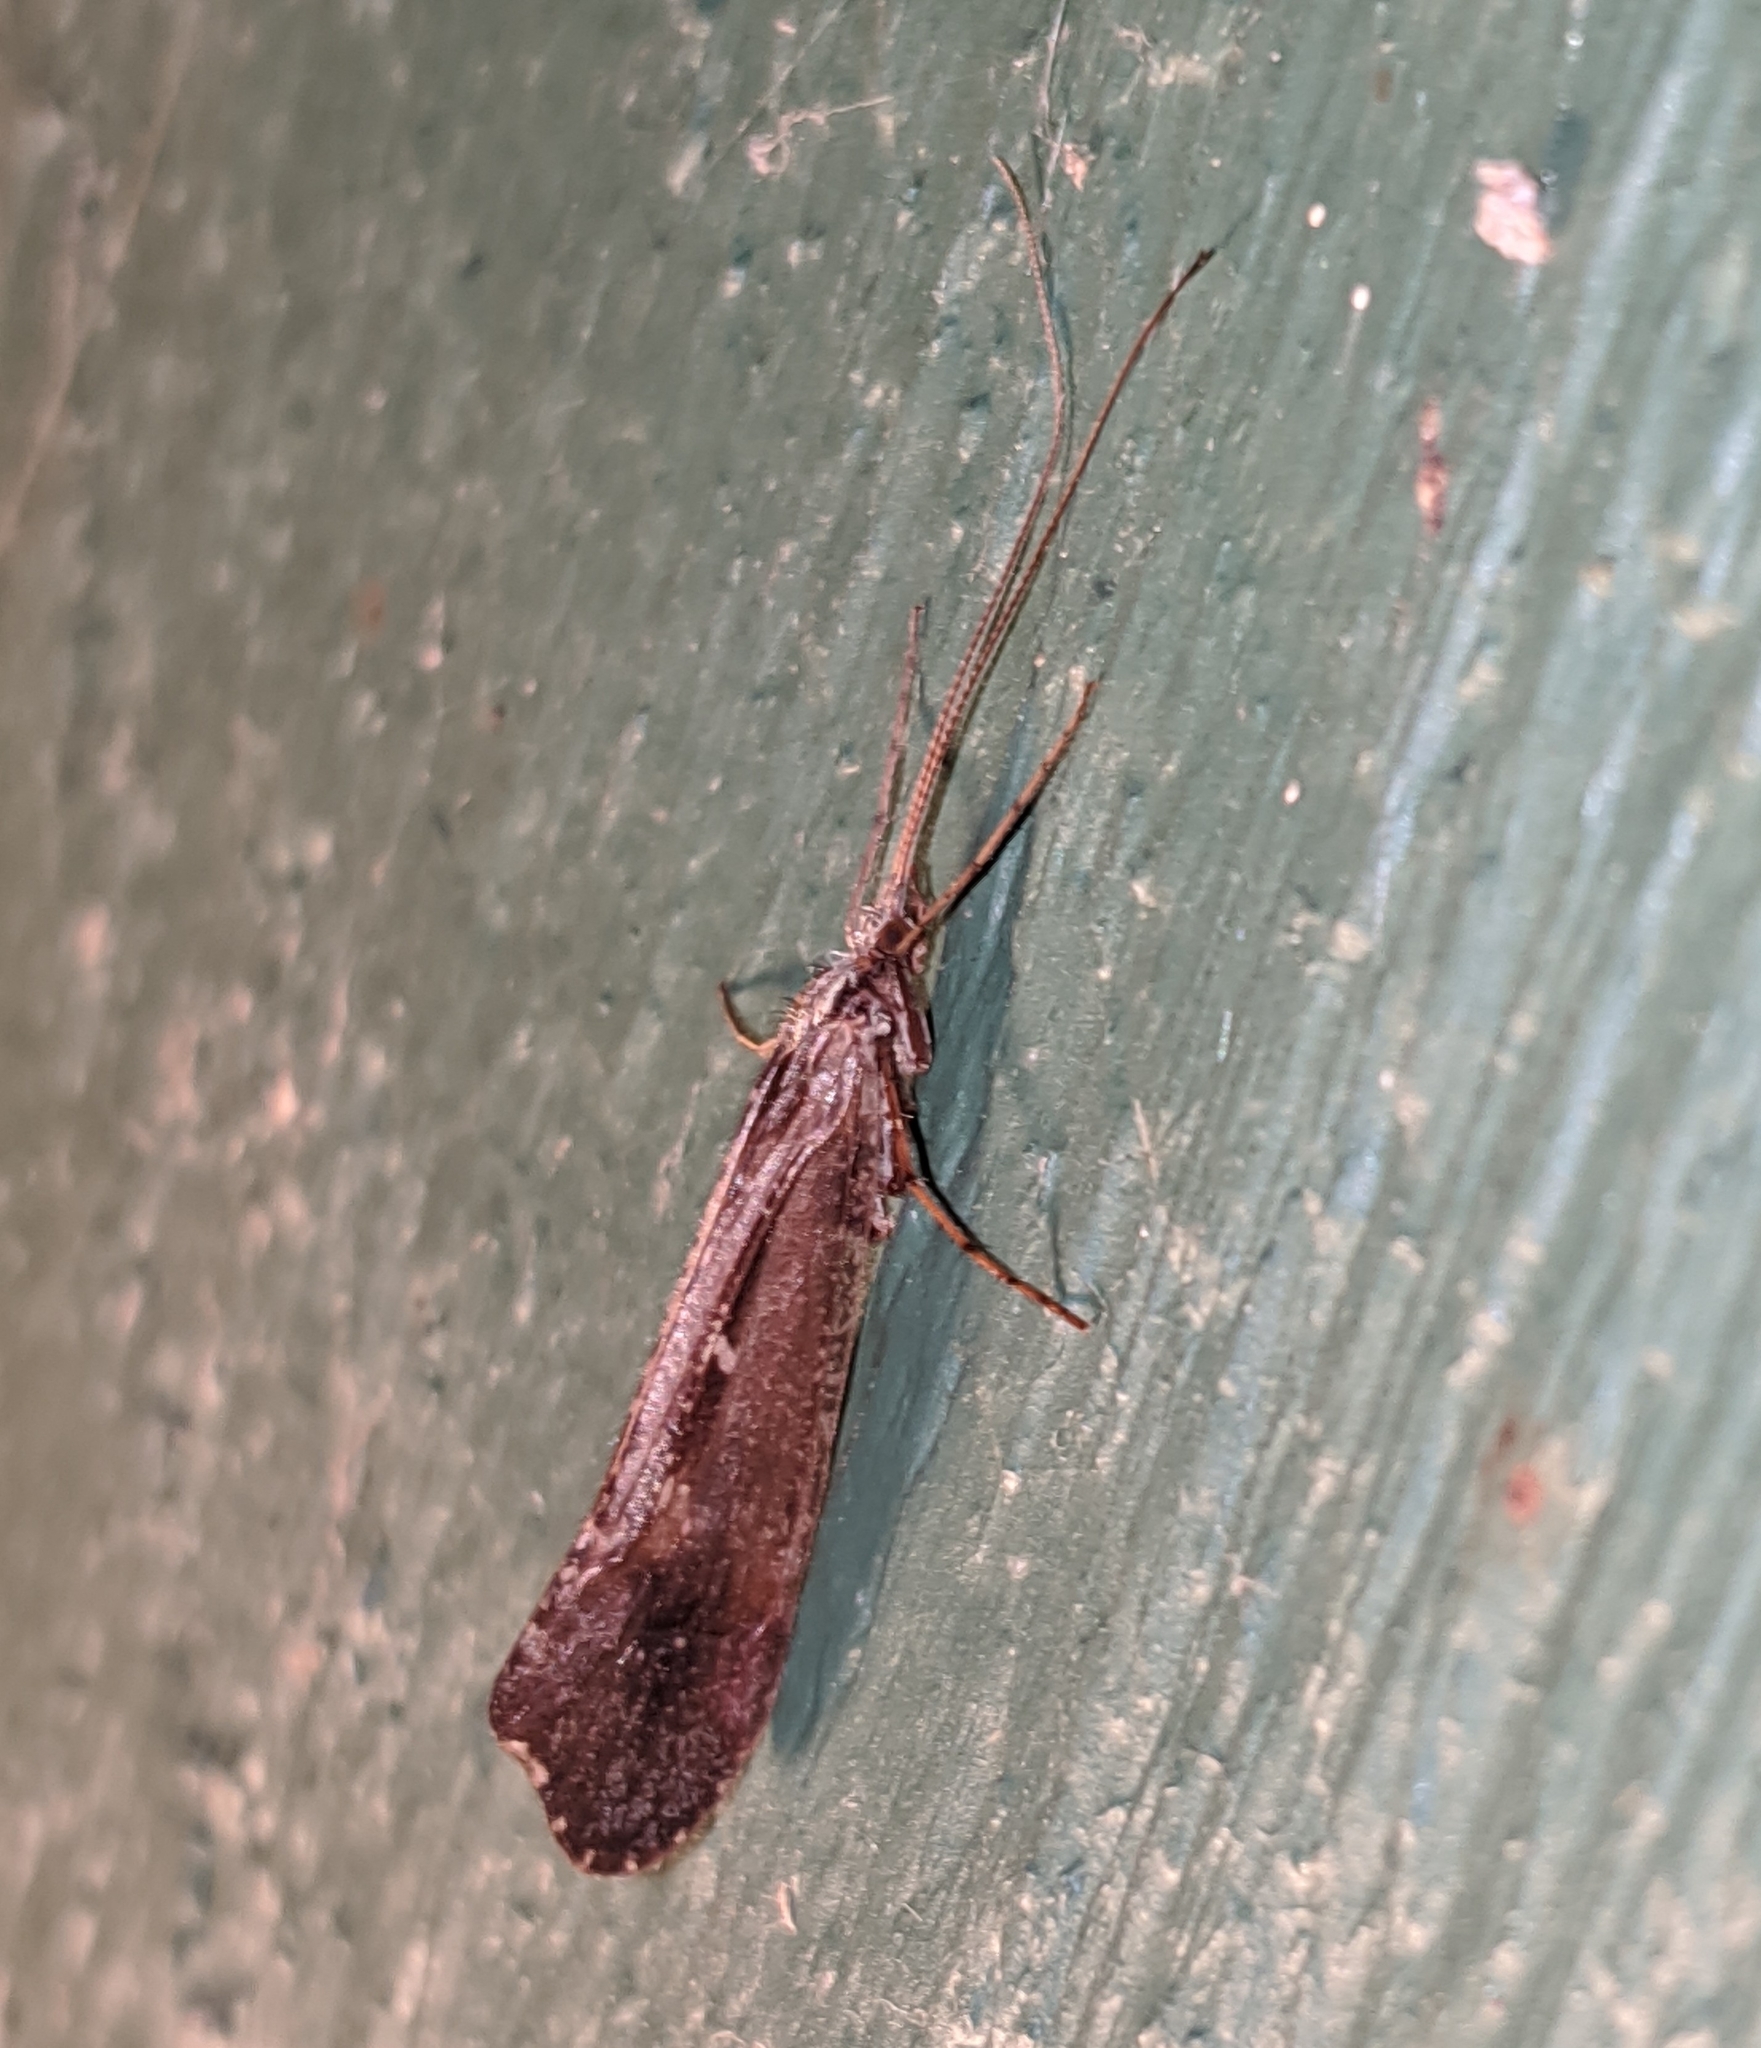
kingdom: Animalia
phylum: Arthropoda
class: Insecta
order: Trichoptera
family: Limnephilidae
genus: Glyphopsyche
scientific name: Glyphopsyche irrorata
